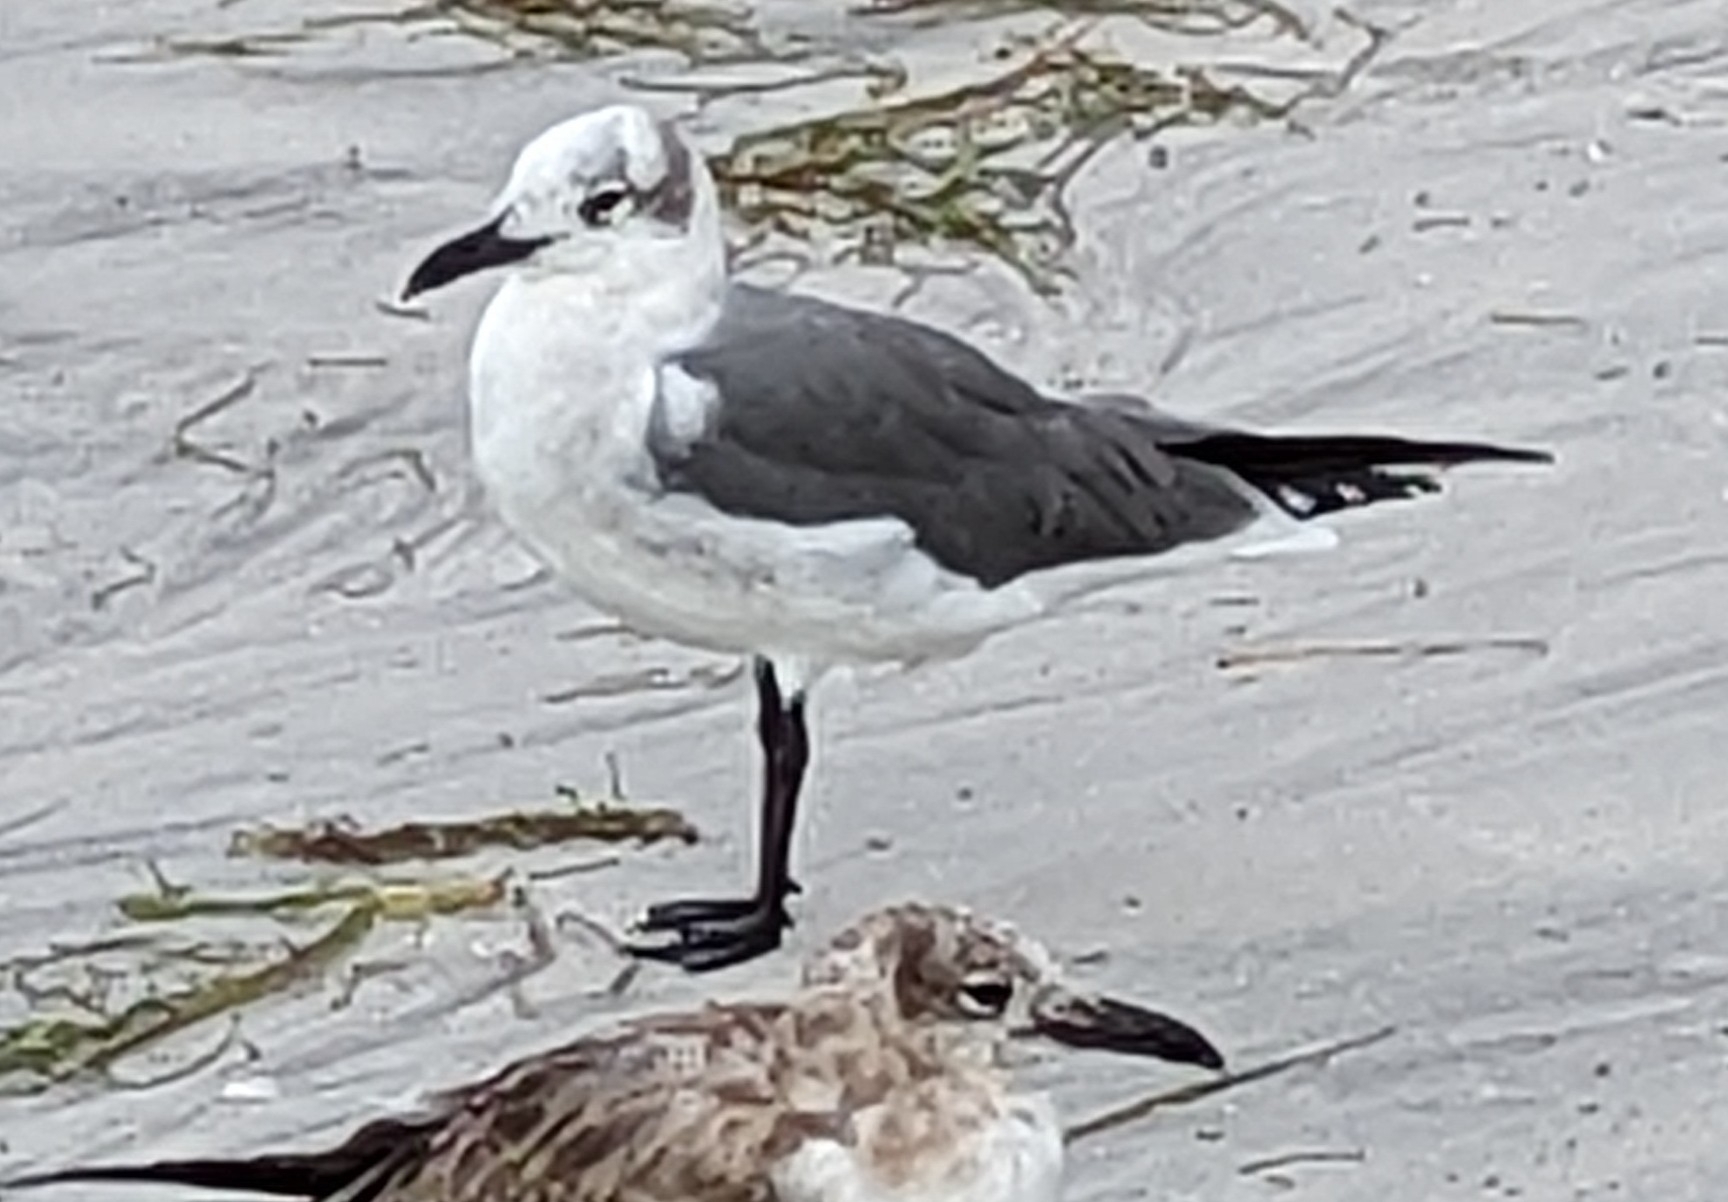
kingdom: Animalia
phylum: Chordata
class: Aves
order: Charadriiformes
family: Laridae
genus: Leucophaeus
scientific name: Leucophaeus atricilla
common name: Laughing gull
